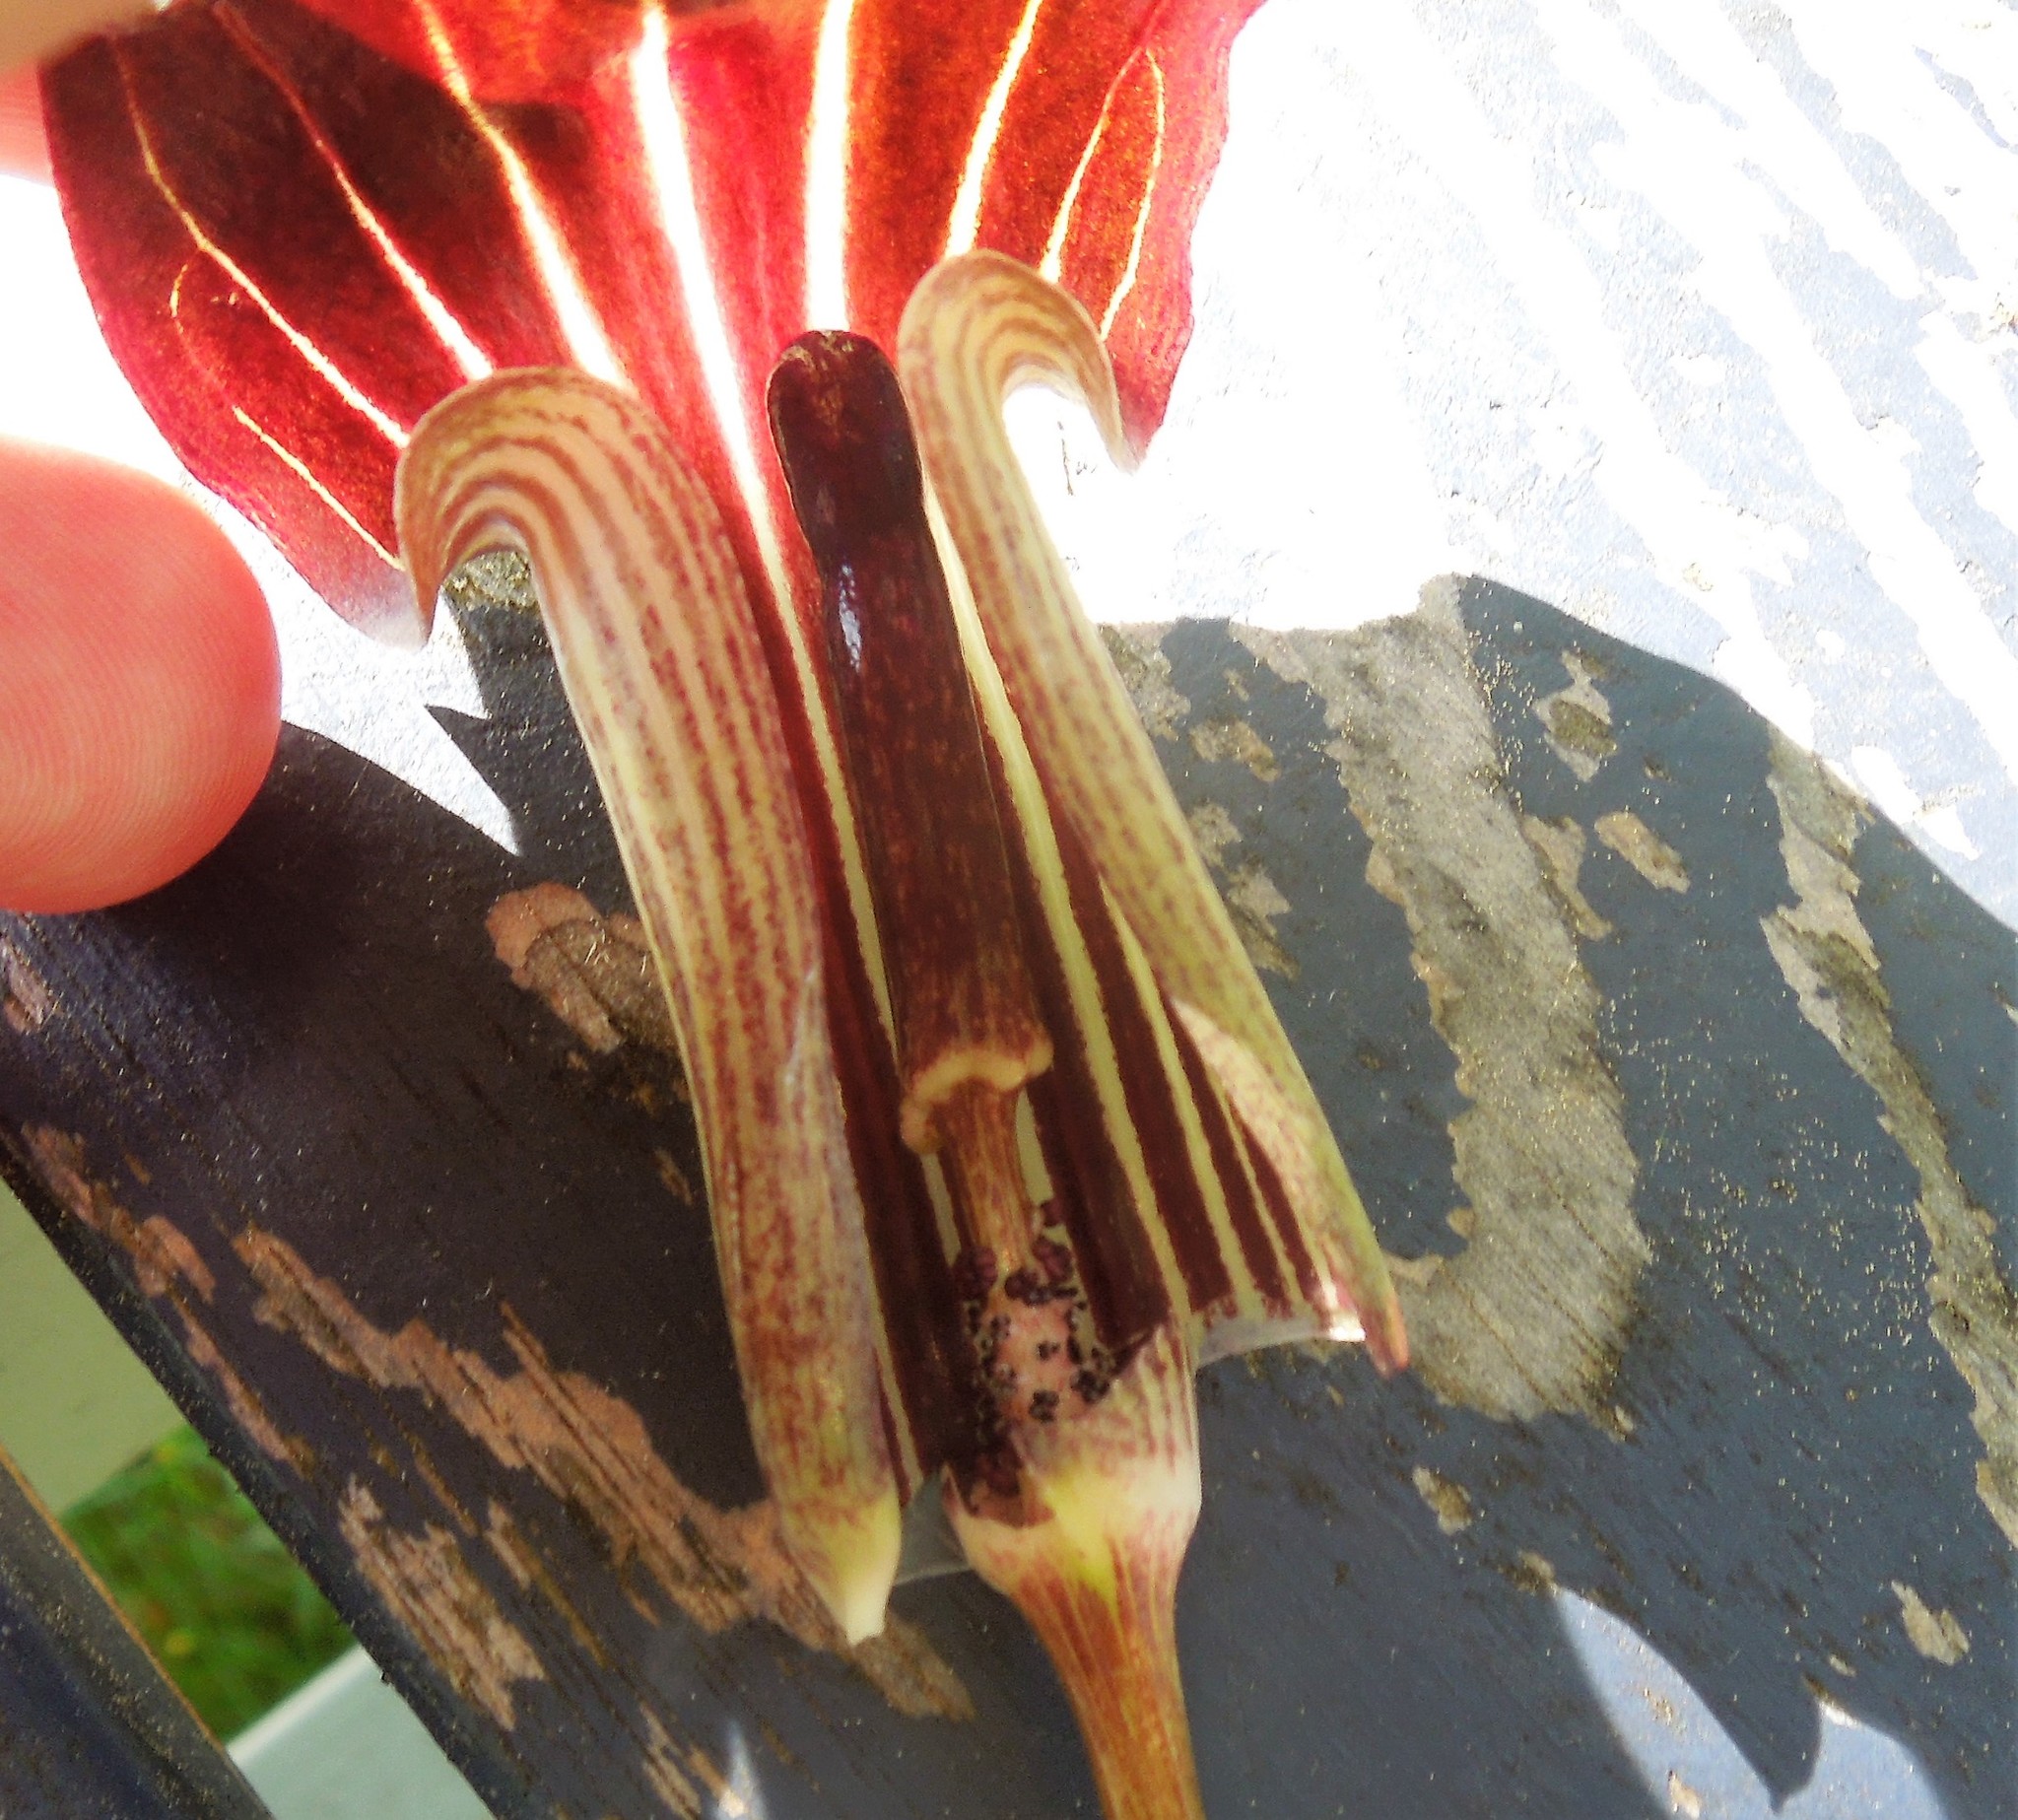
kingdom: Plantae
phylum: Tracheophyta
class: Liliopsida
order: Alismatales
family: Araceae
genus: Arisaema
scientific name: Arisaema triphyllum
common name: Jack-in-the-pulpit
